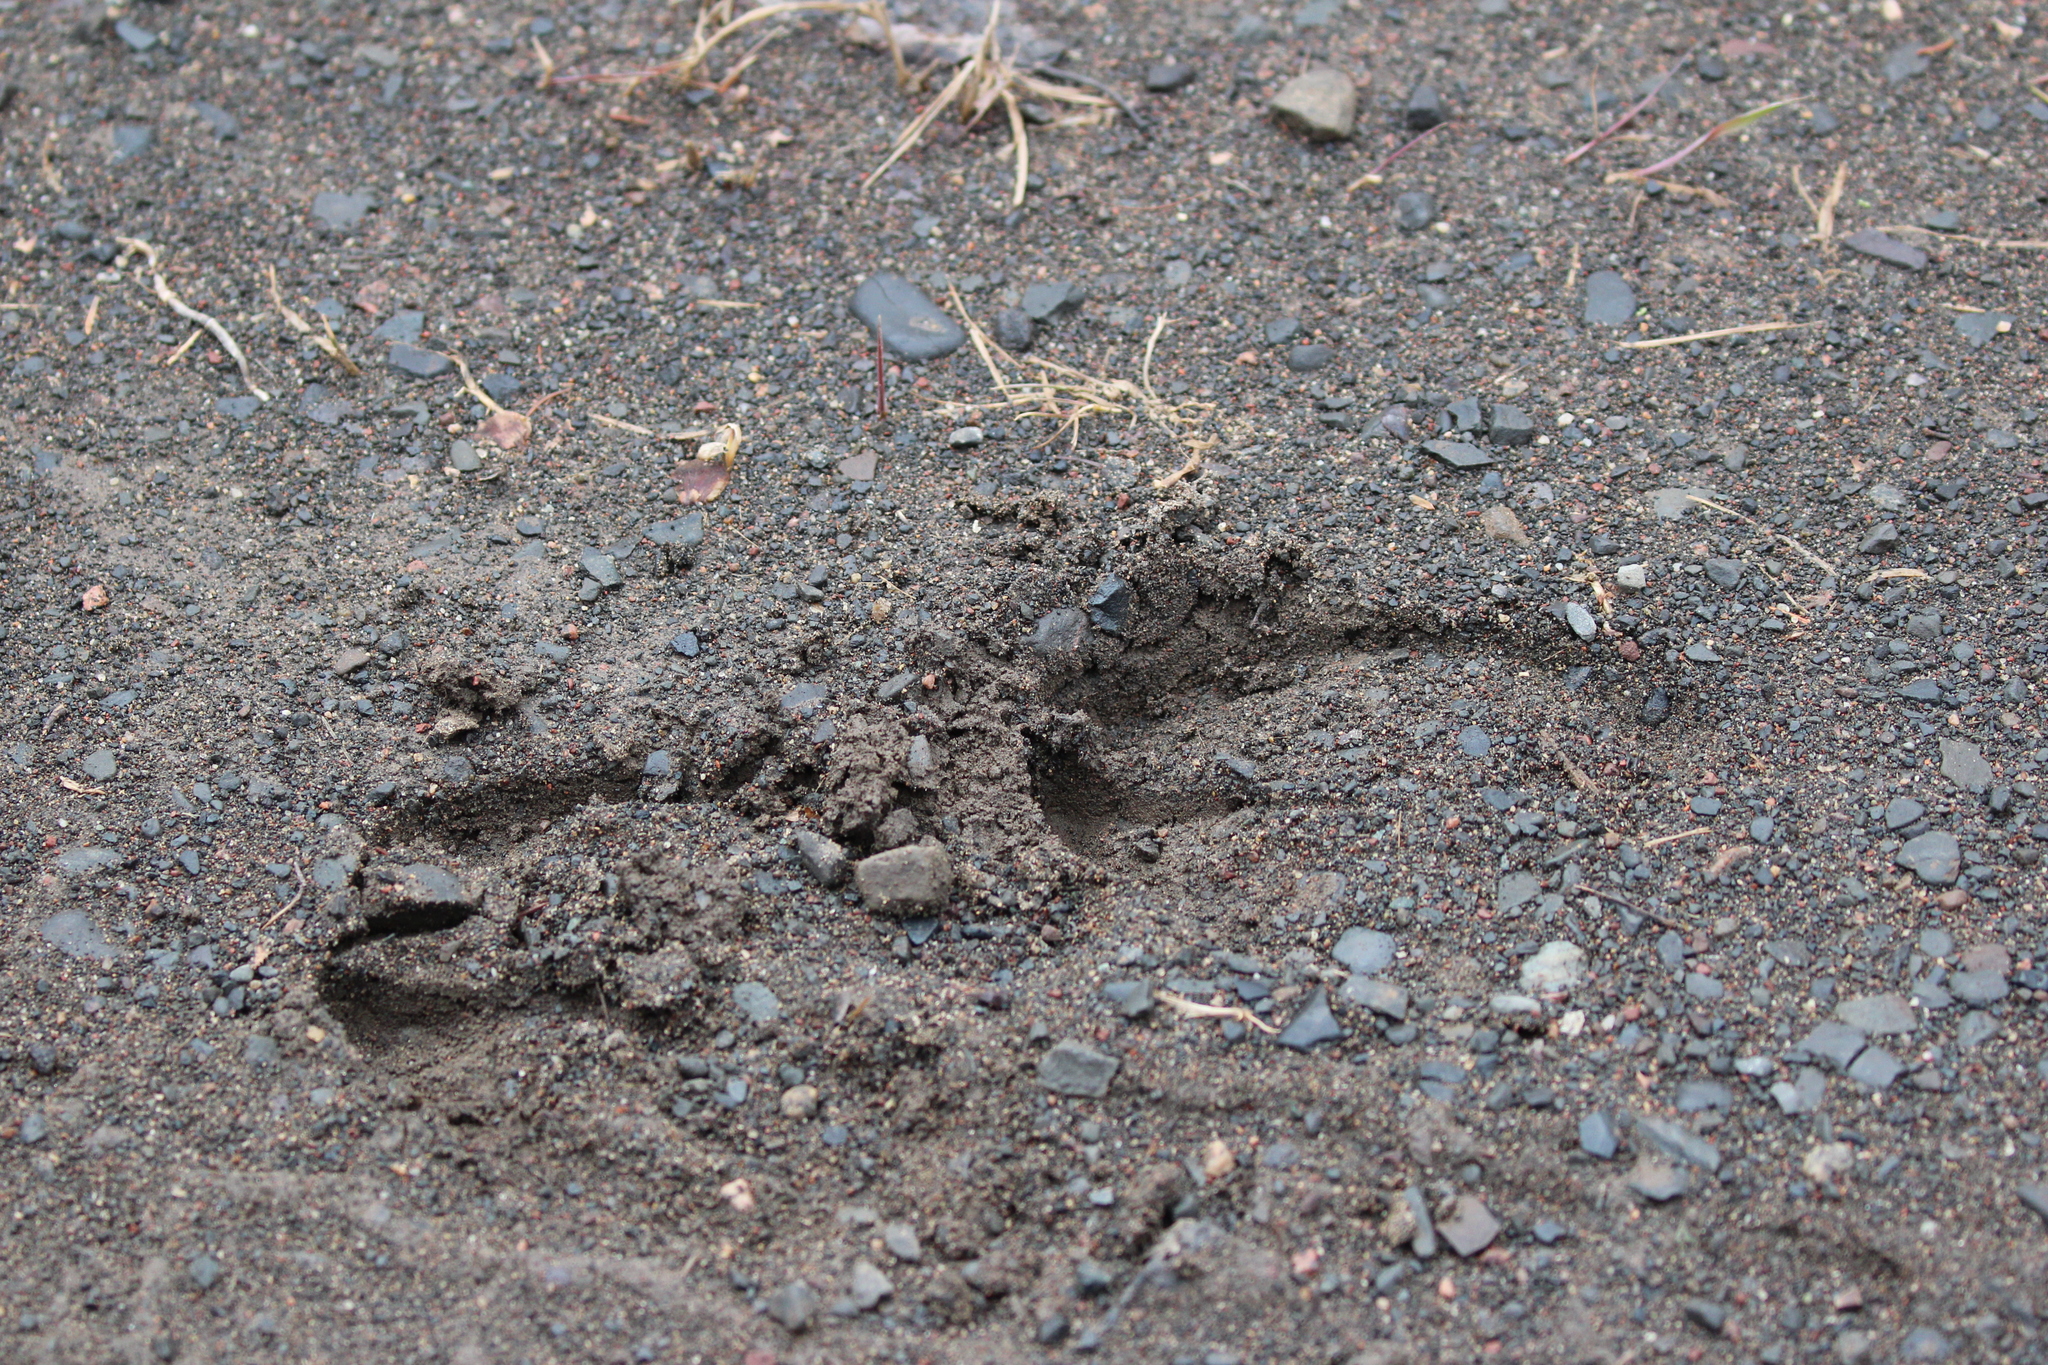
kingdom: Animalia
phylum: Chordata
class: Mammalia
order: Artiodactyla
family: Cervidae
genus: Alces
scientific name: Alces americanus
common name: Moose
